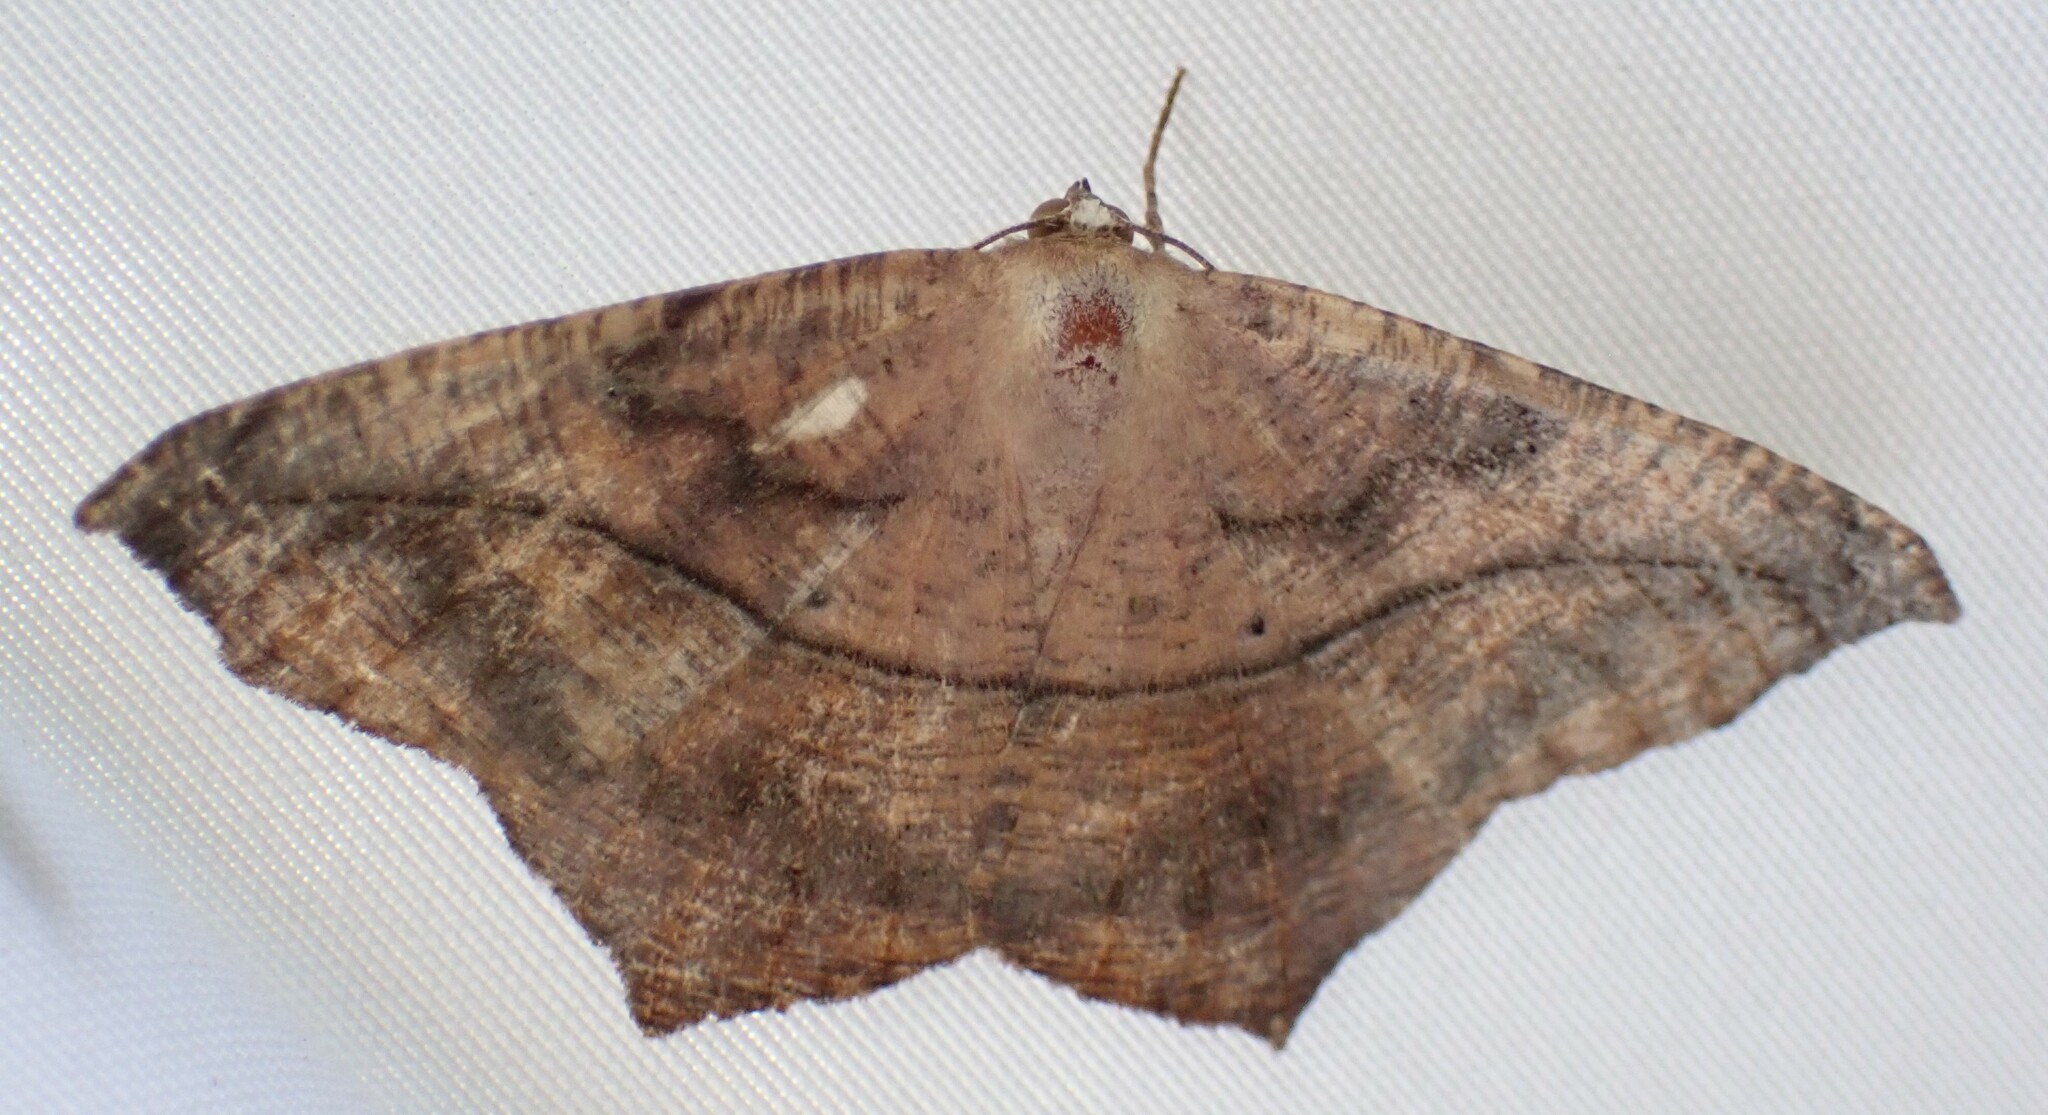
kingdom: Animalia
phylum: Arthropoda
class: Insecta
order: Lepidoptera
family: Geometridae
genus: Prochoerodes
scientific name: Prochoerodes lineola
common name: Large maple spanworm
